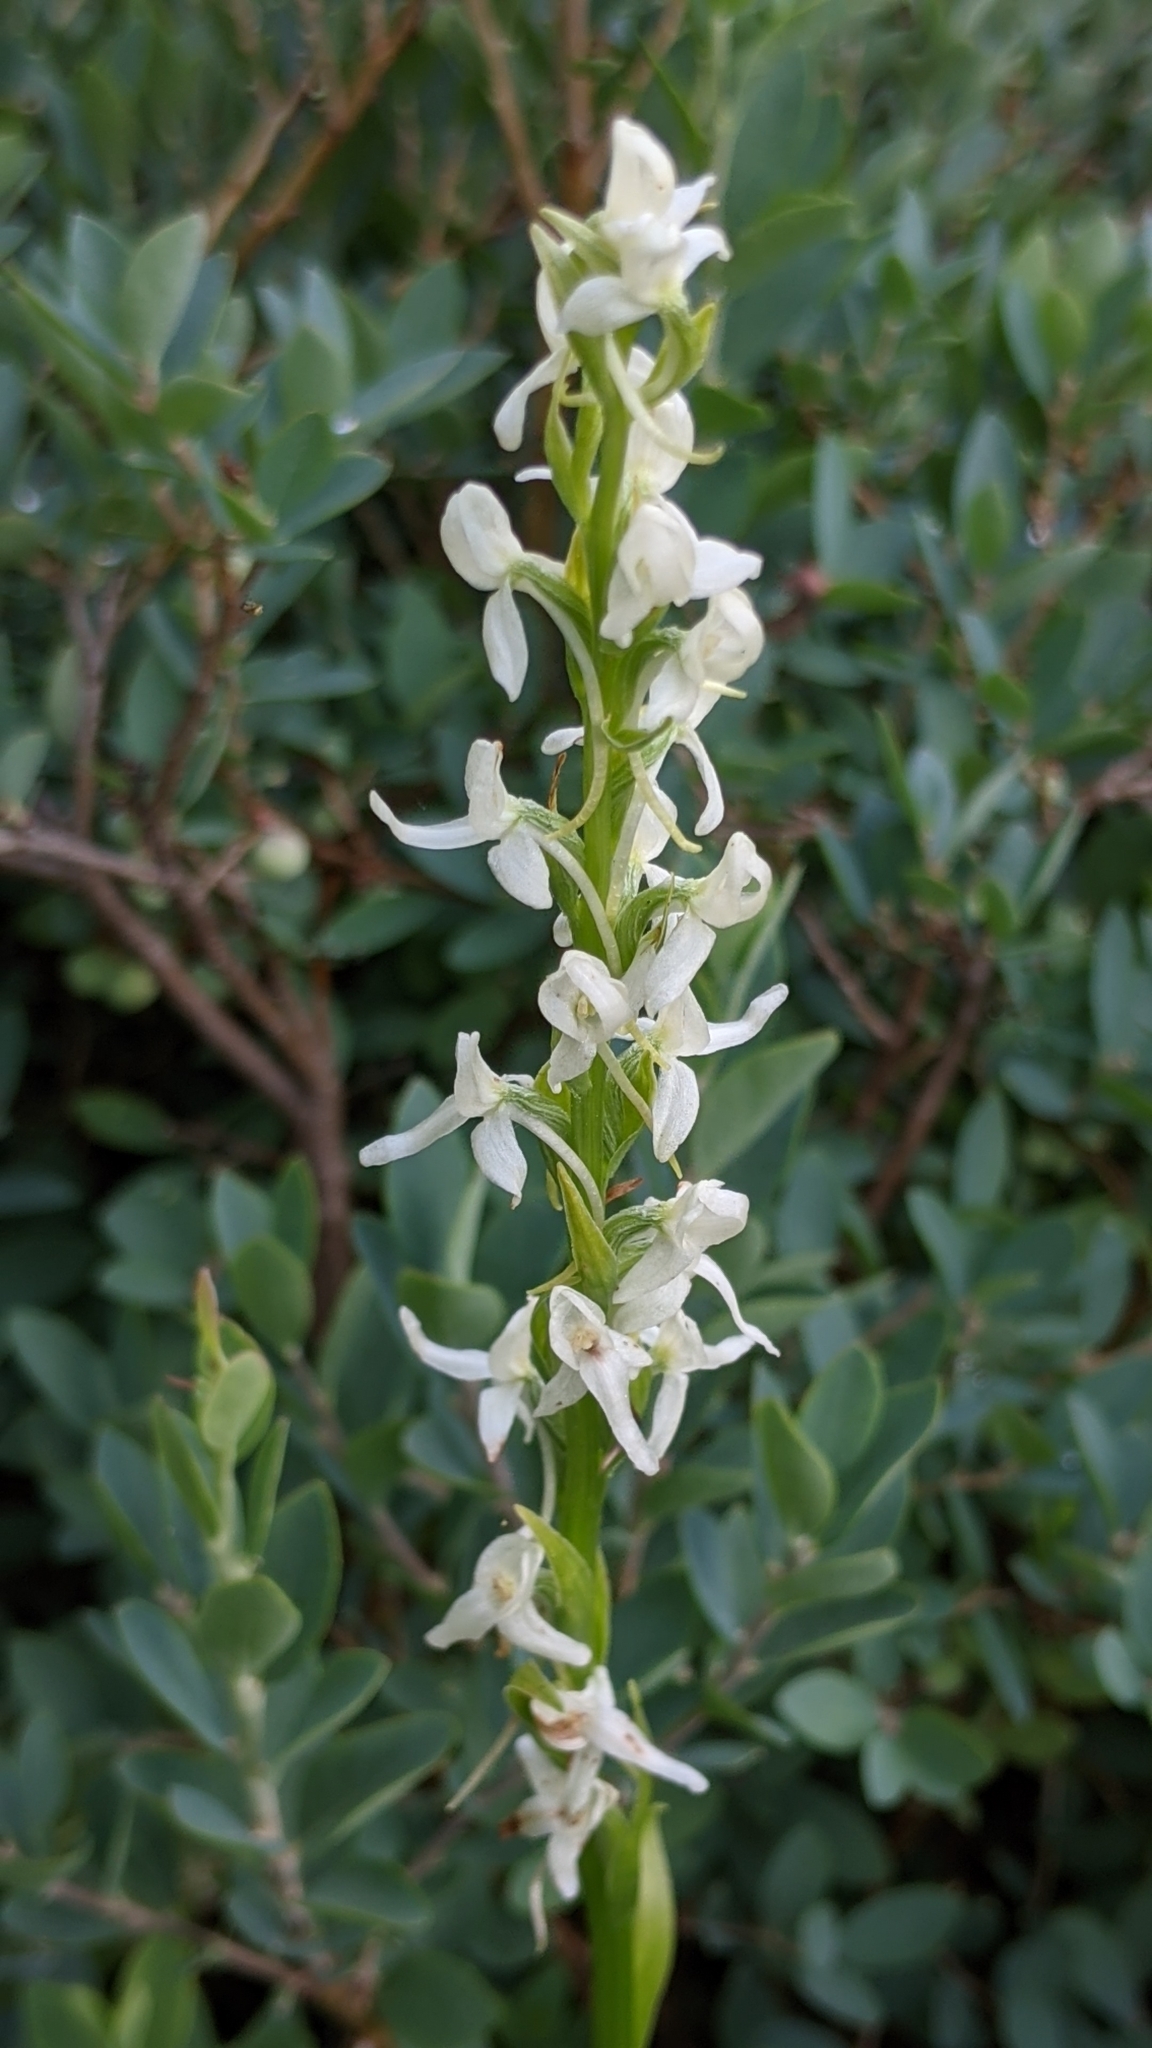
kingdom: Plantae
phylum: Tracheophyta
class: Liliopsida
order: Asparagales
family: Orchidaceae
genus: Platanthera
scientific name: Platanthera dilatata
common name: Bog candles
